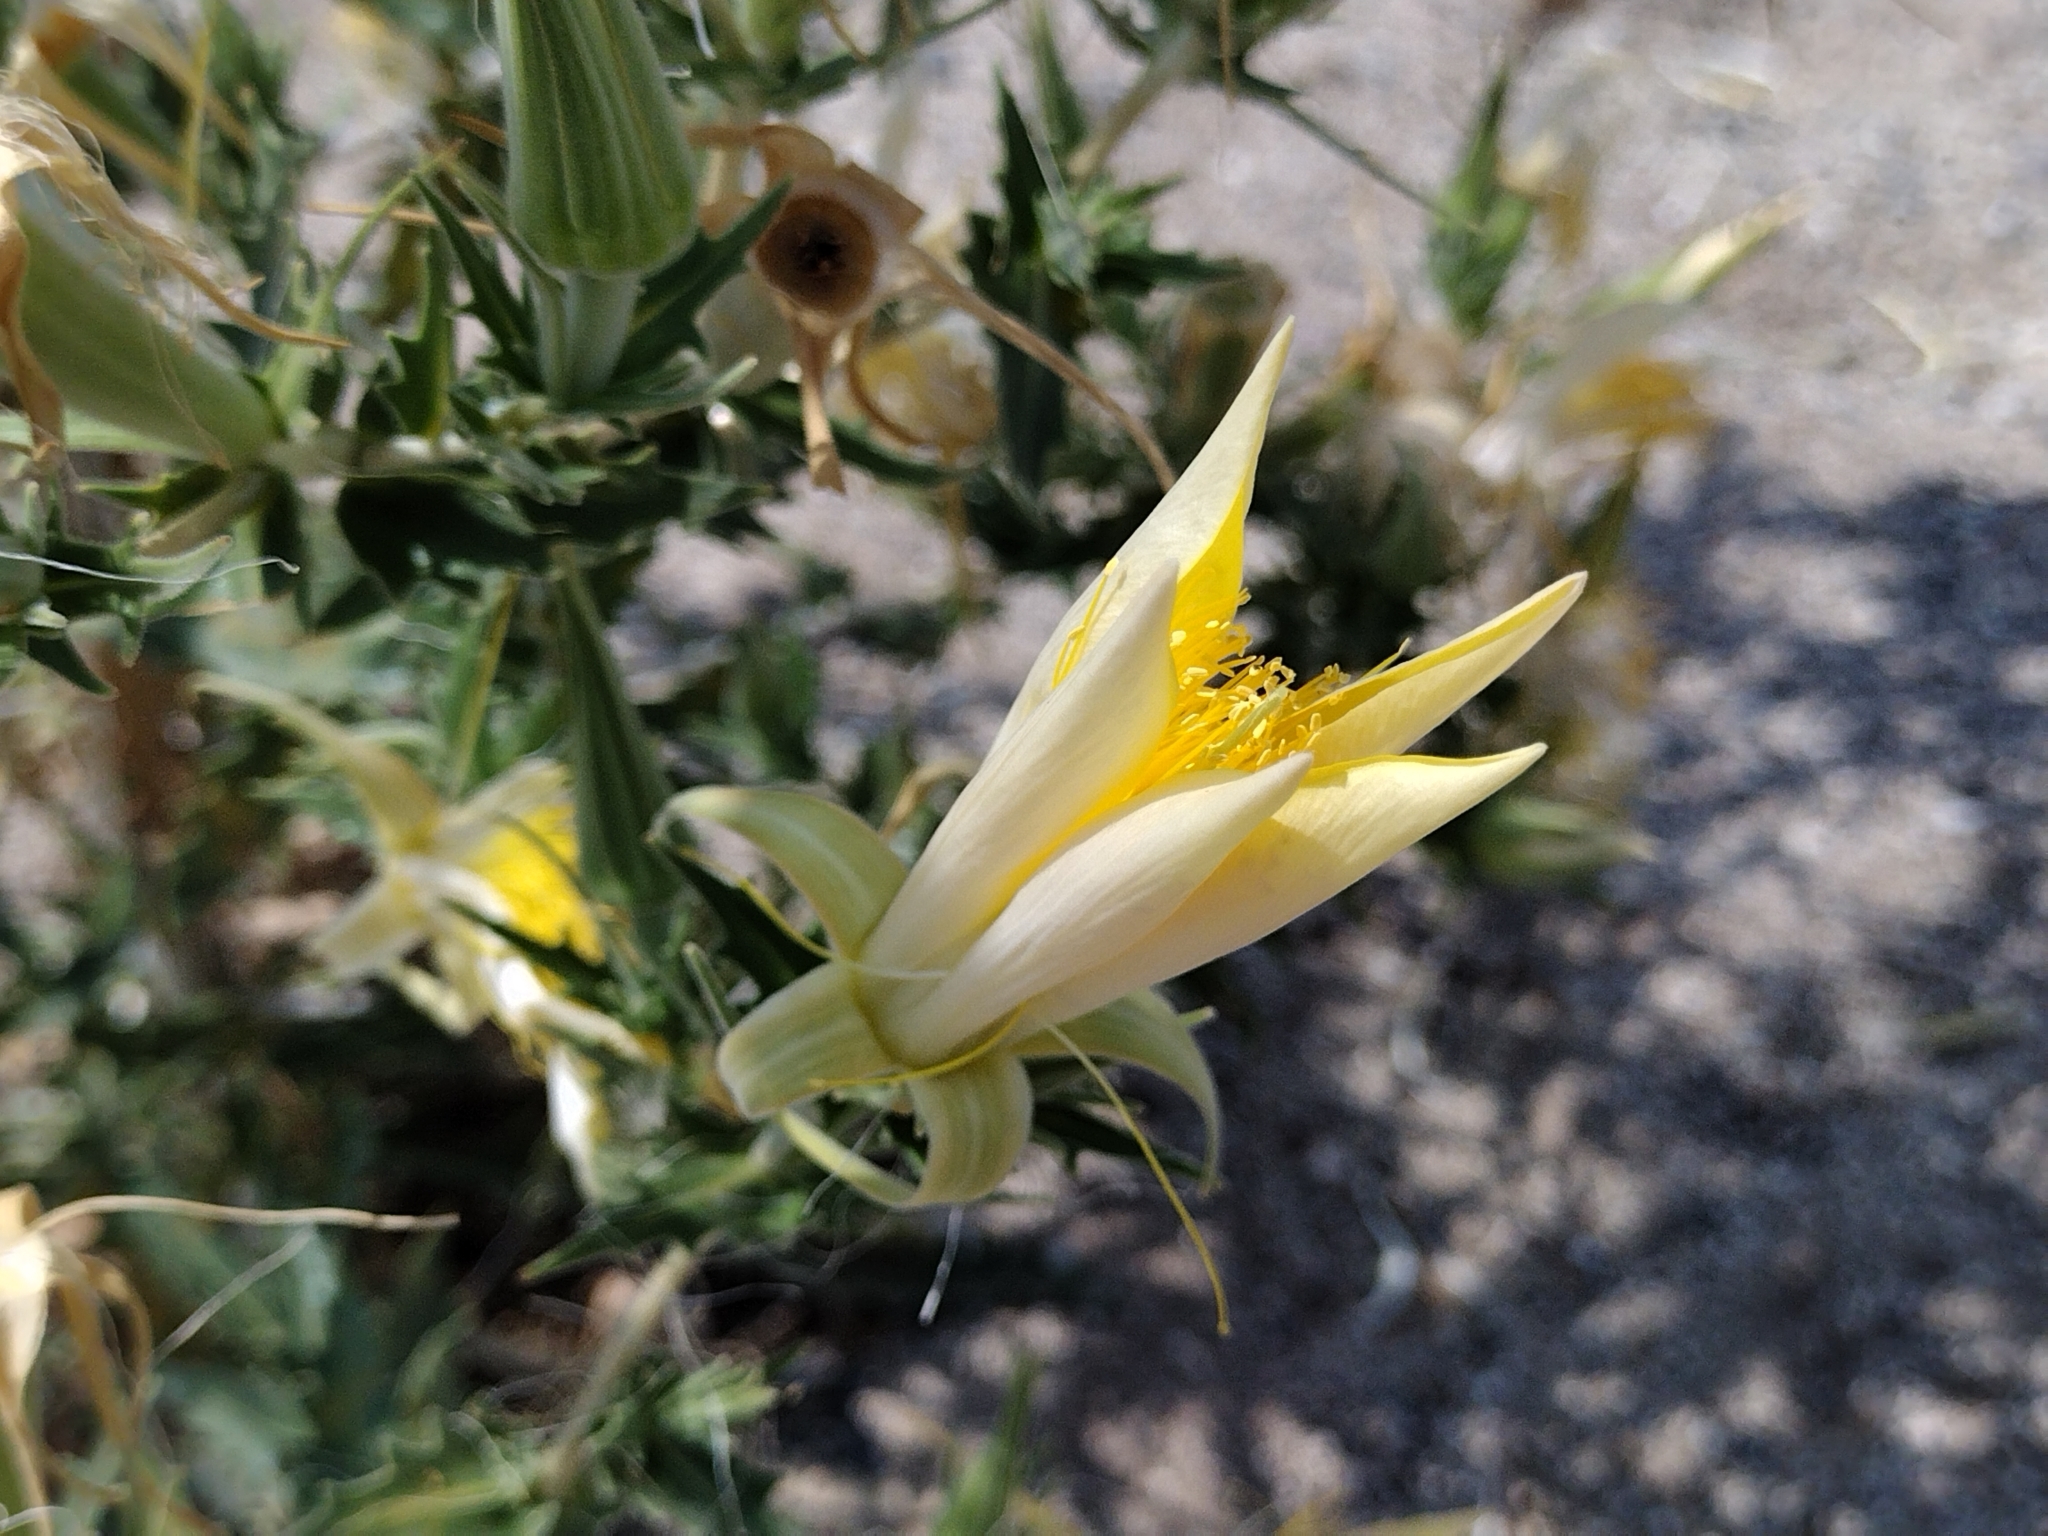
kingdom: Plantae
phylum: Tracheophyta
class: Magnoliopsida
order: Cornales
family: Loasaceae
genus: Mentzelia
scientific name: Mentzelia laevicaulis
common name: Smooth-stem blazingstar
